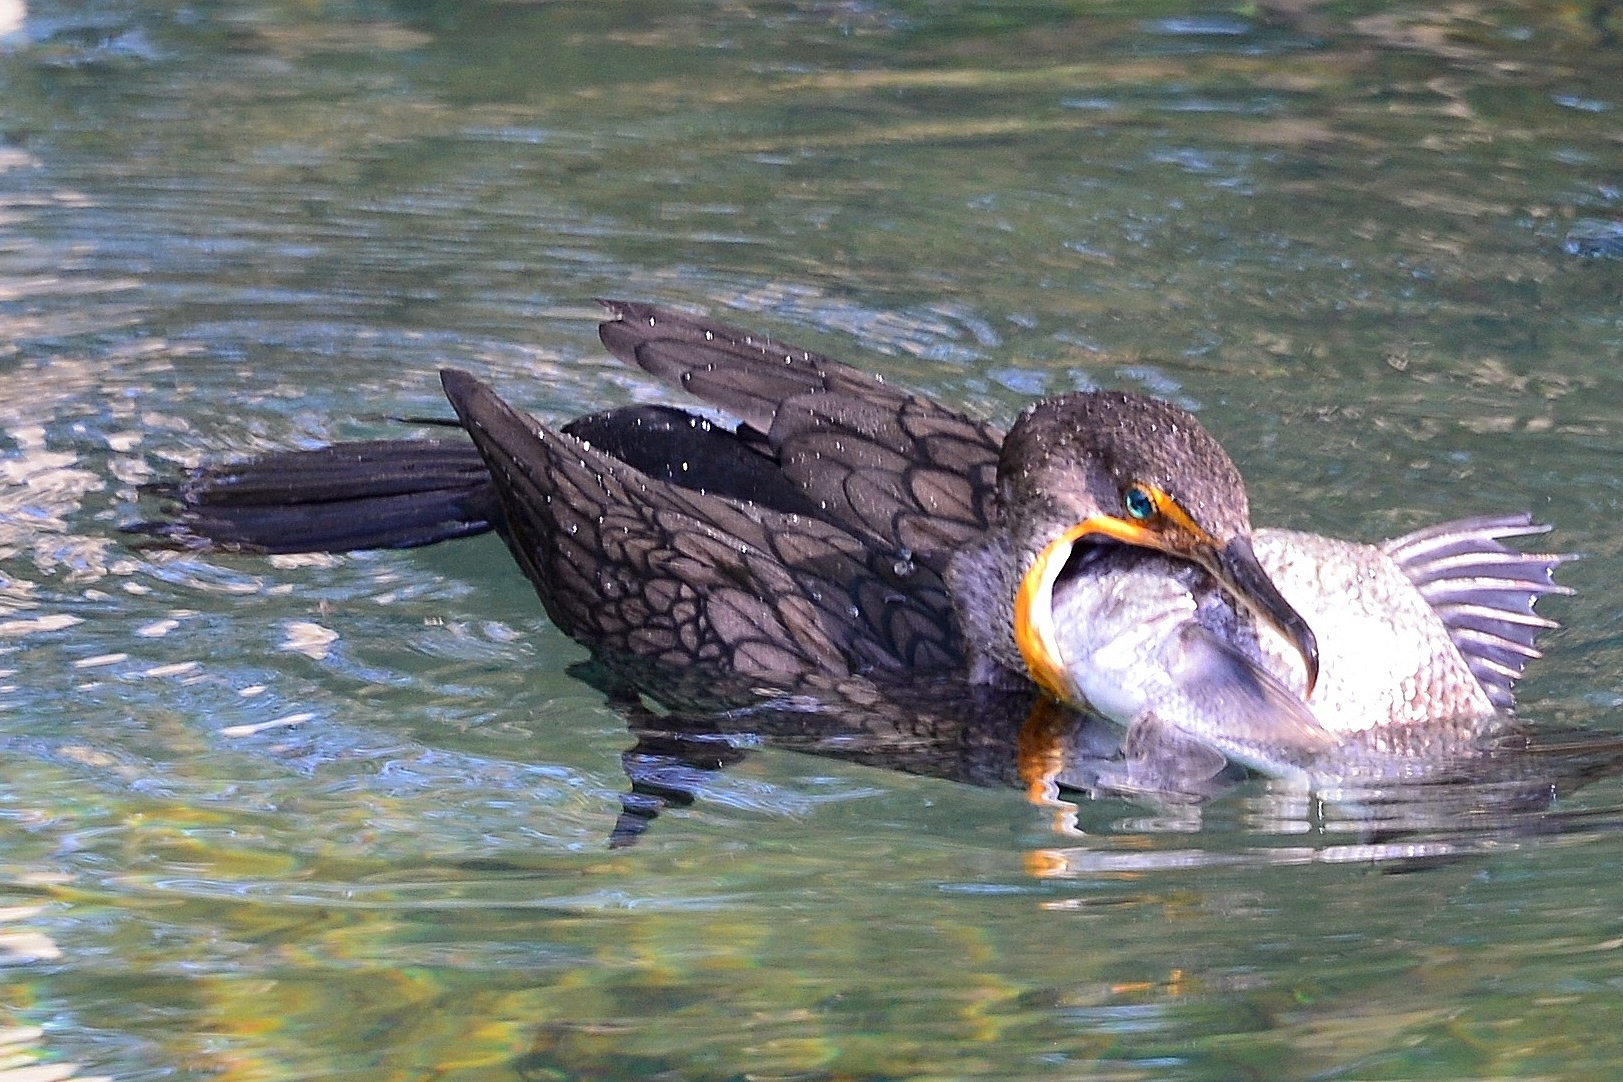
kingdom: Animalia
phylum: Chordata
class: Aves
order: Suliformes
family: Phalacrocoracidae
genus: Phalacrocorax
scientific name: Phalacrocorax auritus
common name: Double-crested cormorant
